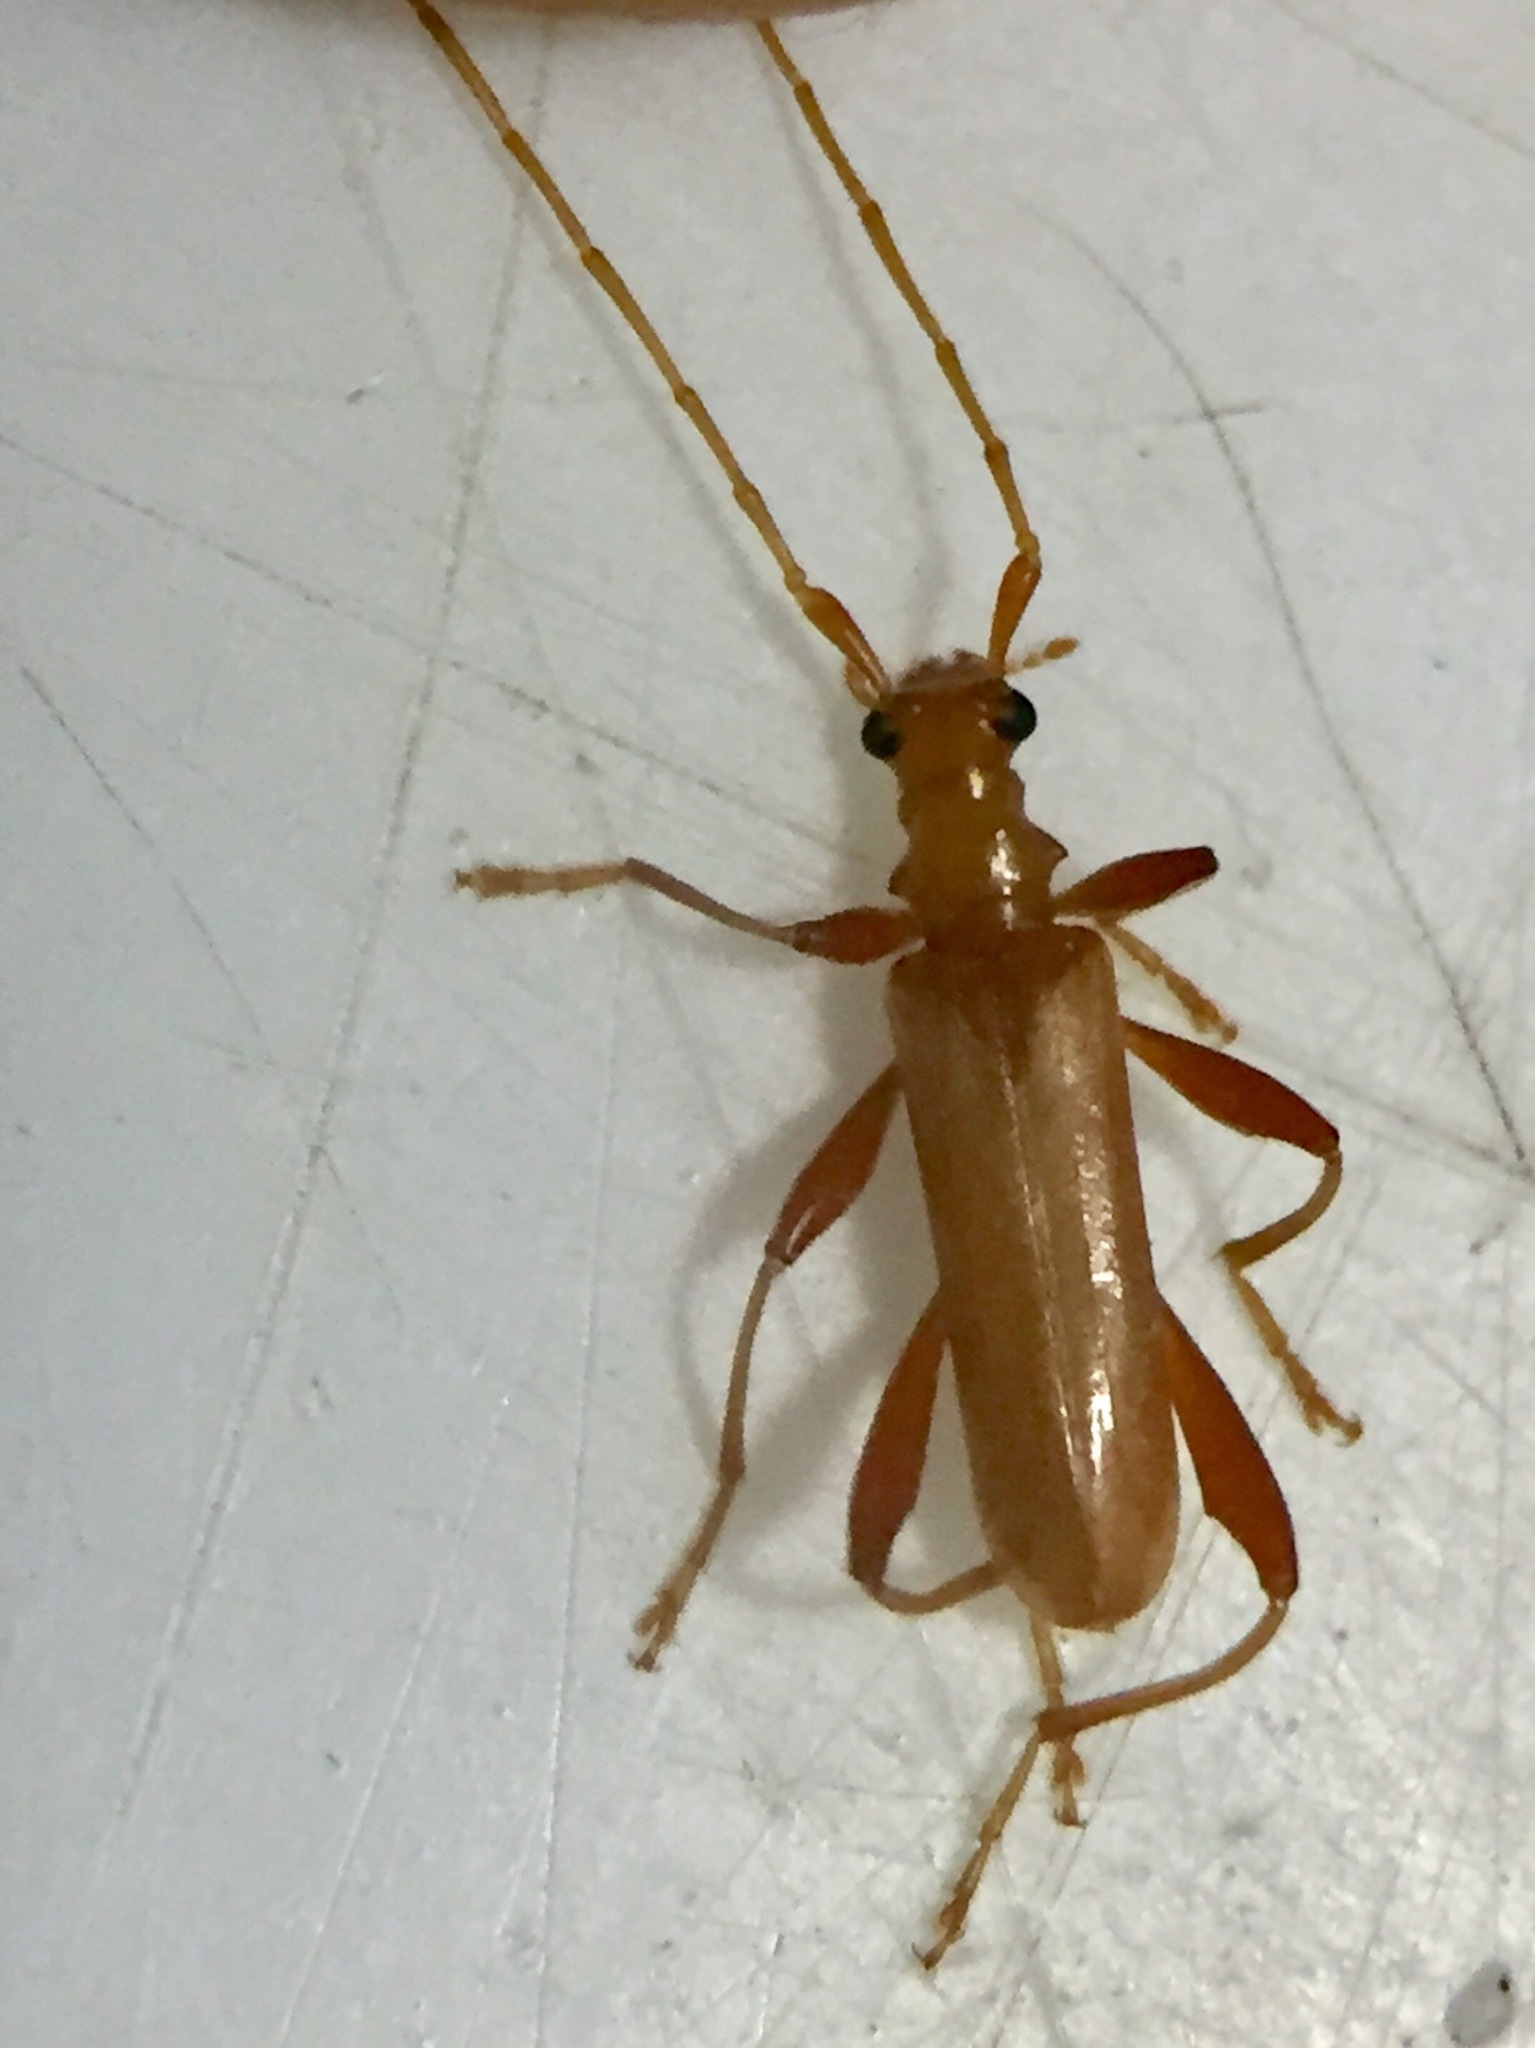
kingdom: Animalia
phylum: Arthropoda
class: Insecta
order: Coleoptera
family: Cerambycidae
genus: Votum
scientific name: Votum munda
